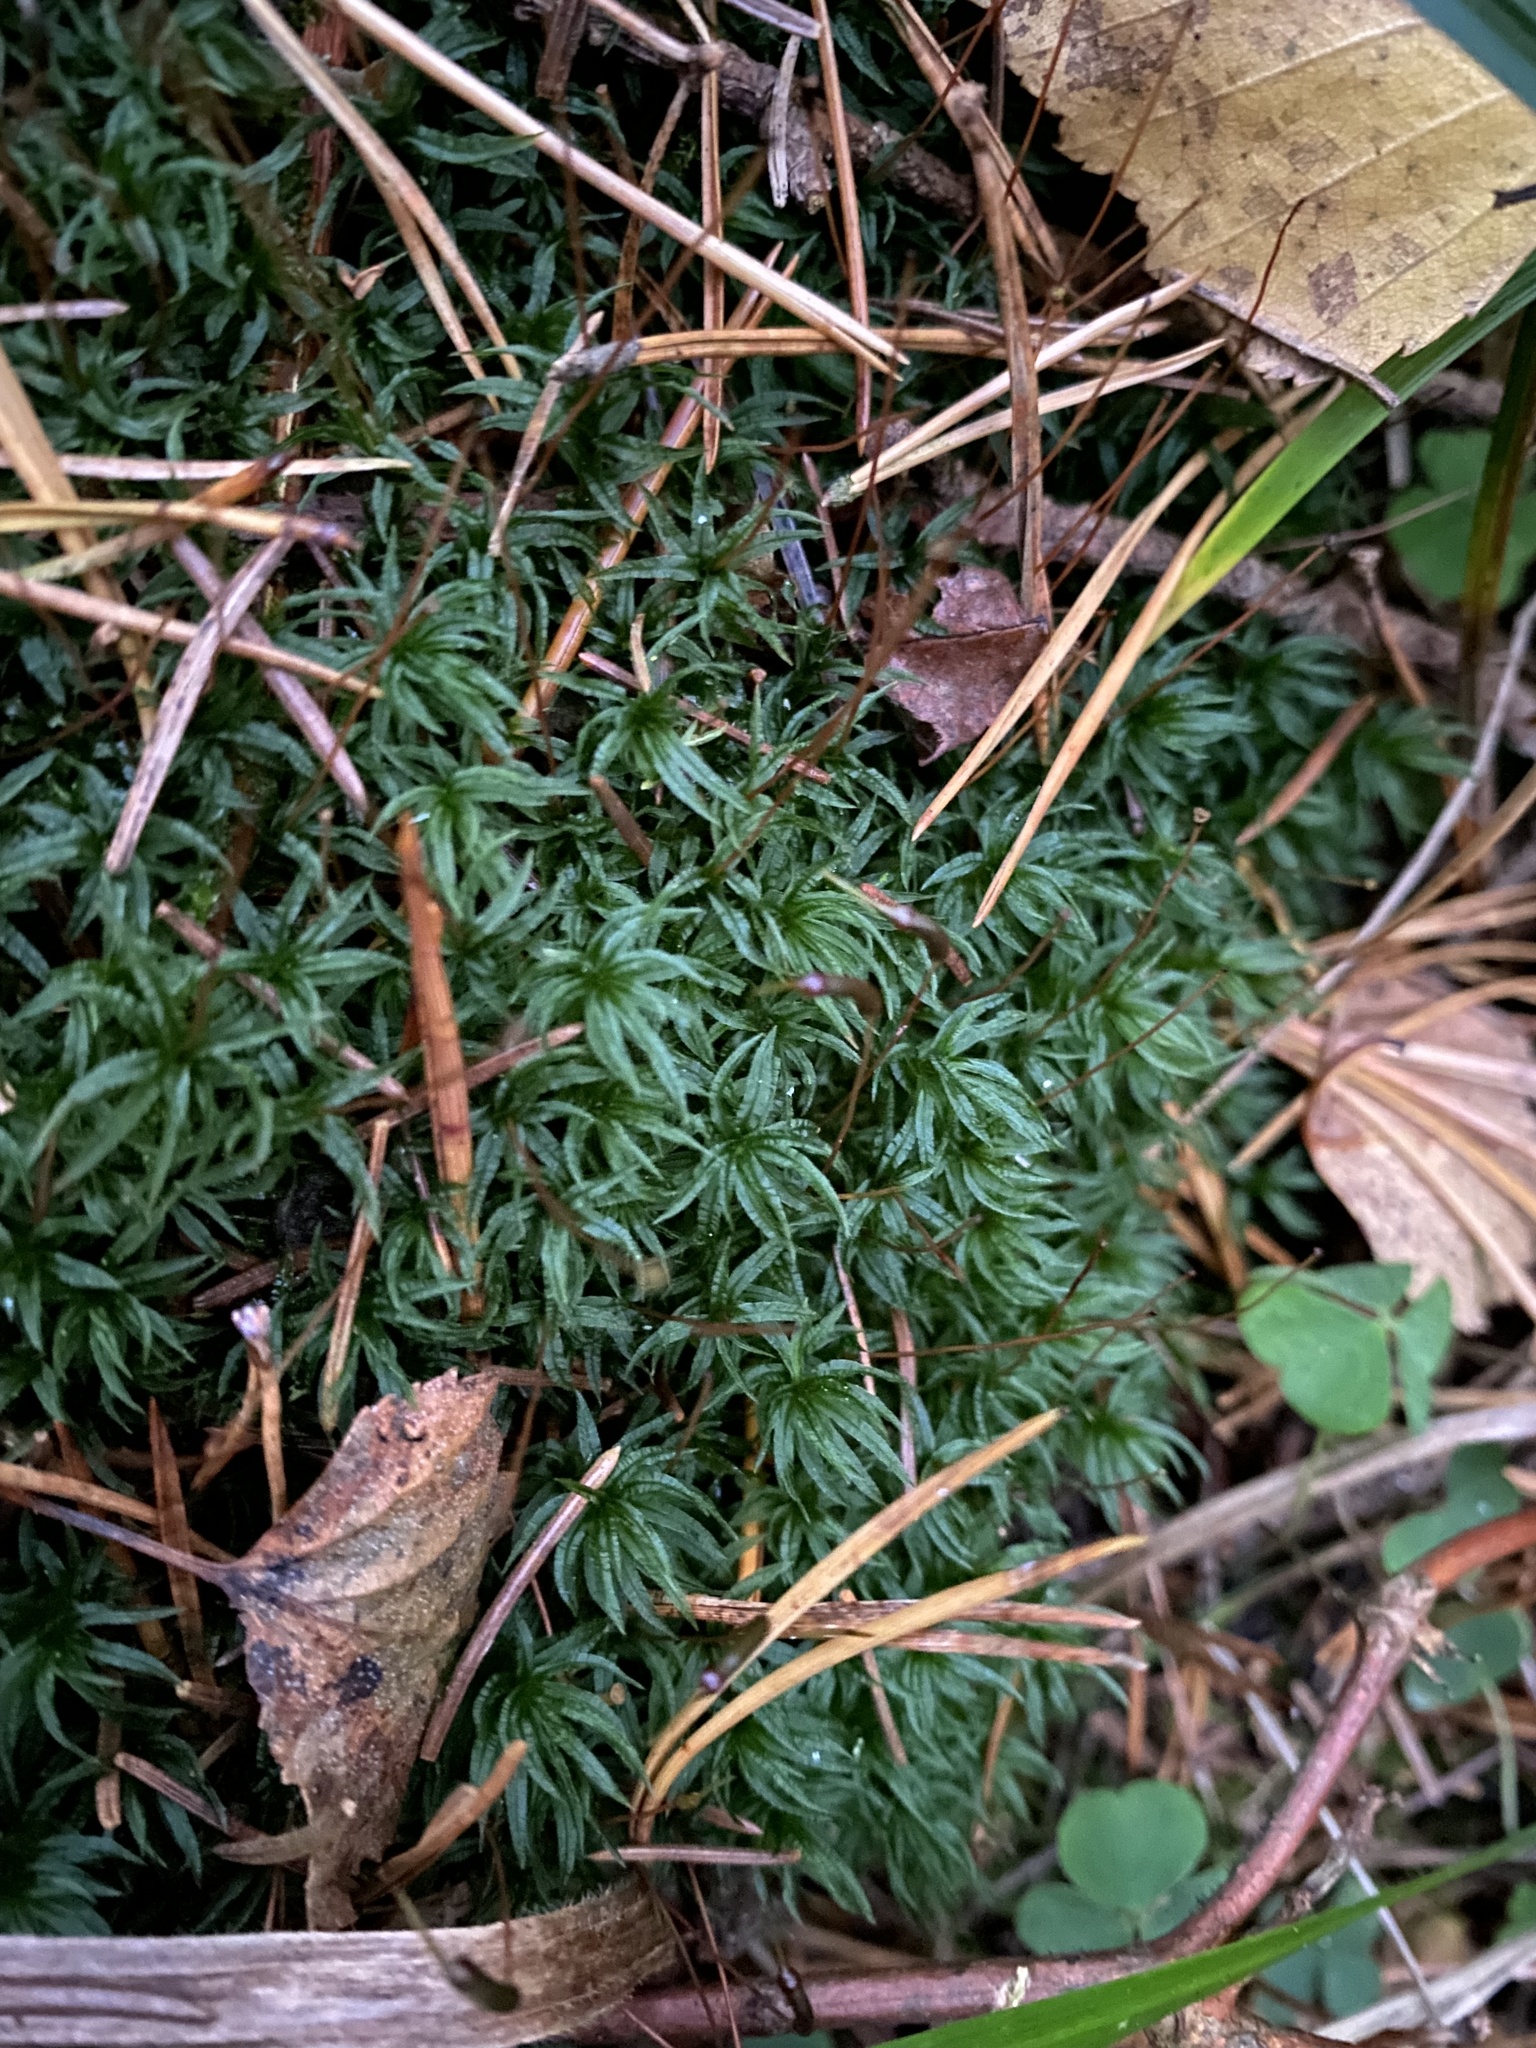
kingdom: Plantae
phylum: Bryophyta
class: Polytrichopsida
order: Polytrichales
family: Polytrichaceae
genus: Atrichum
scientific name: Atrichum undulatum
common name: Common smoothcap
